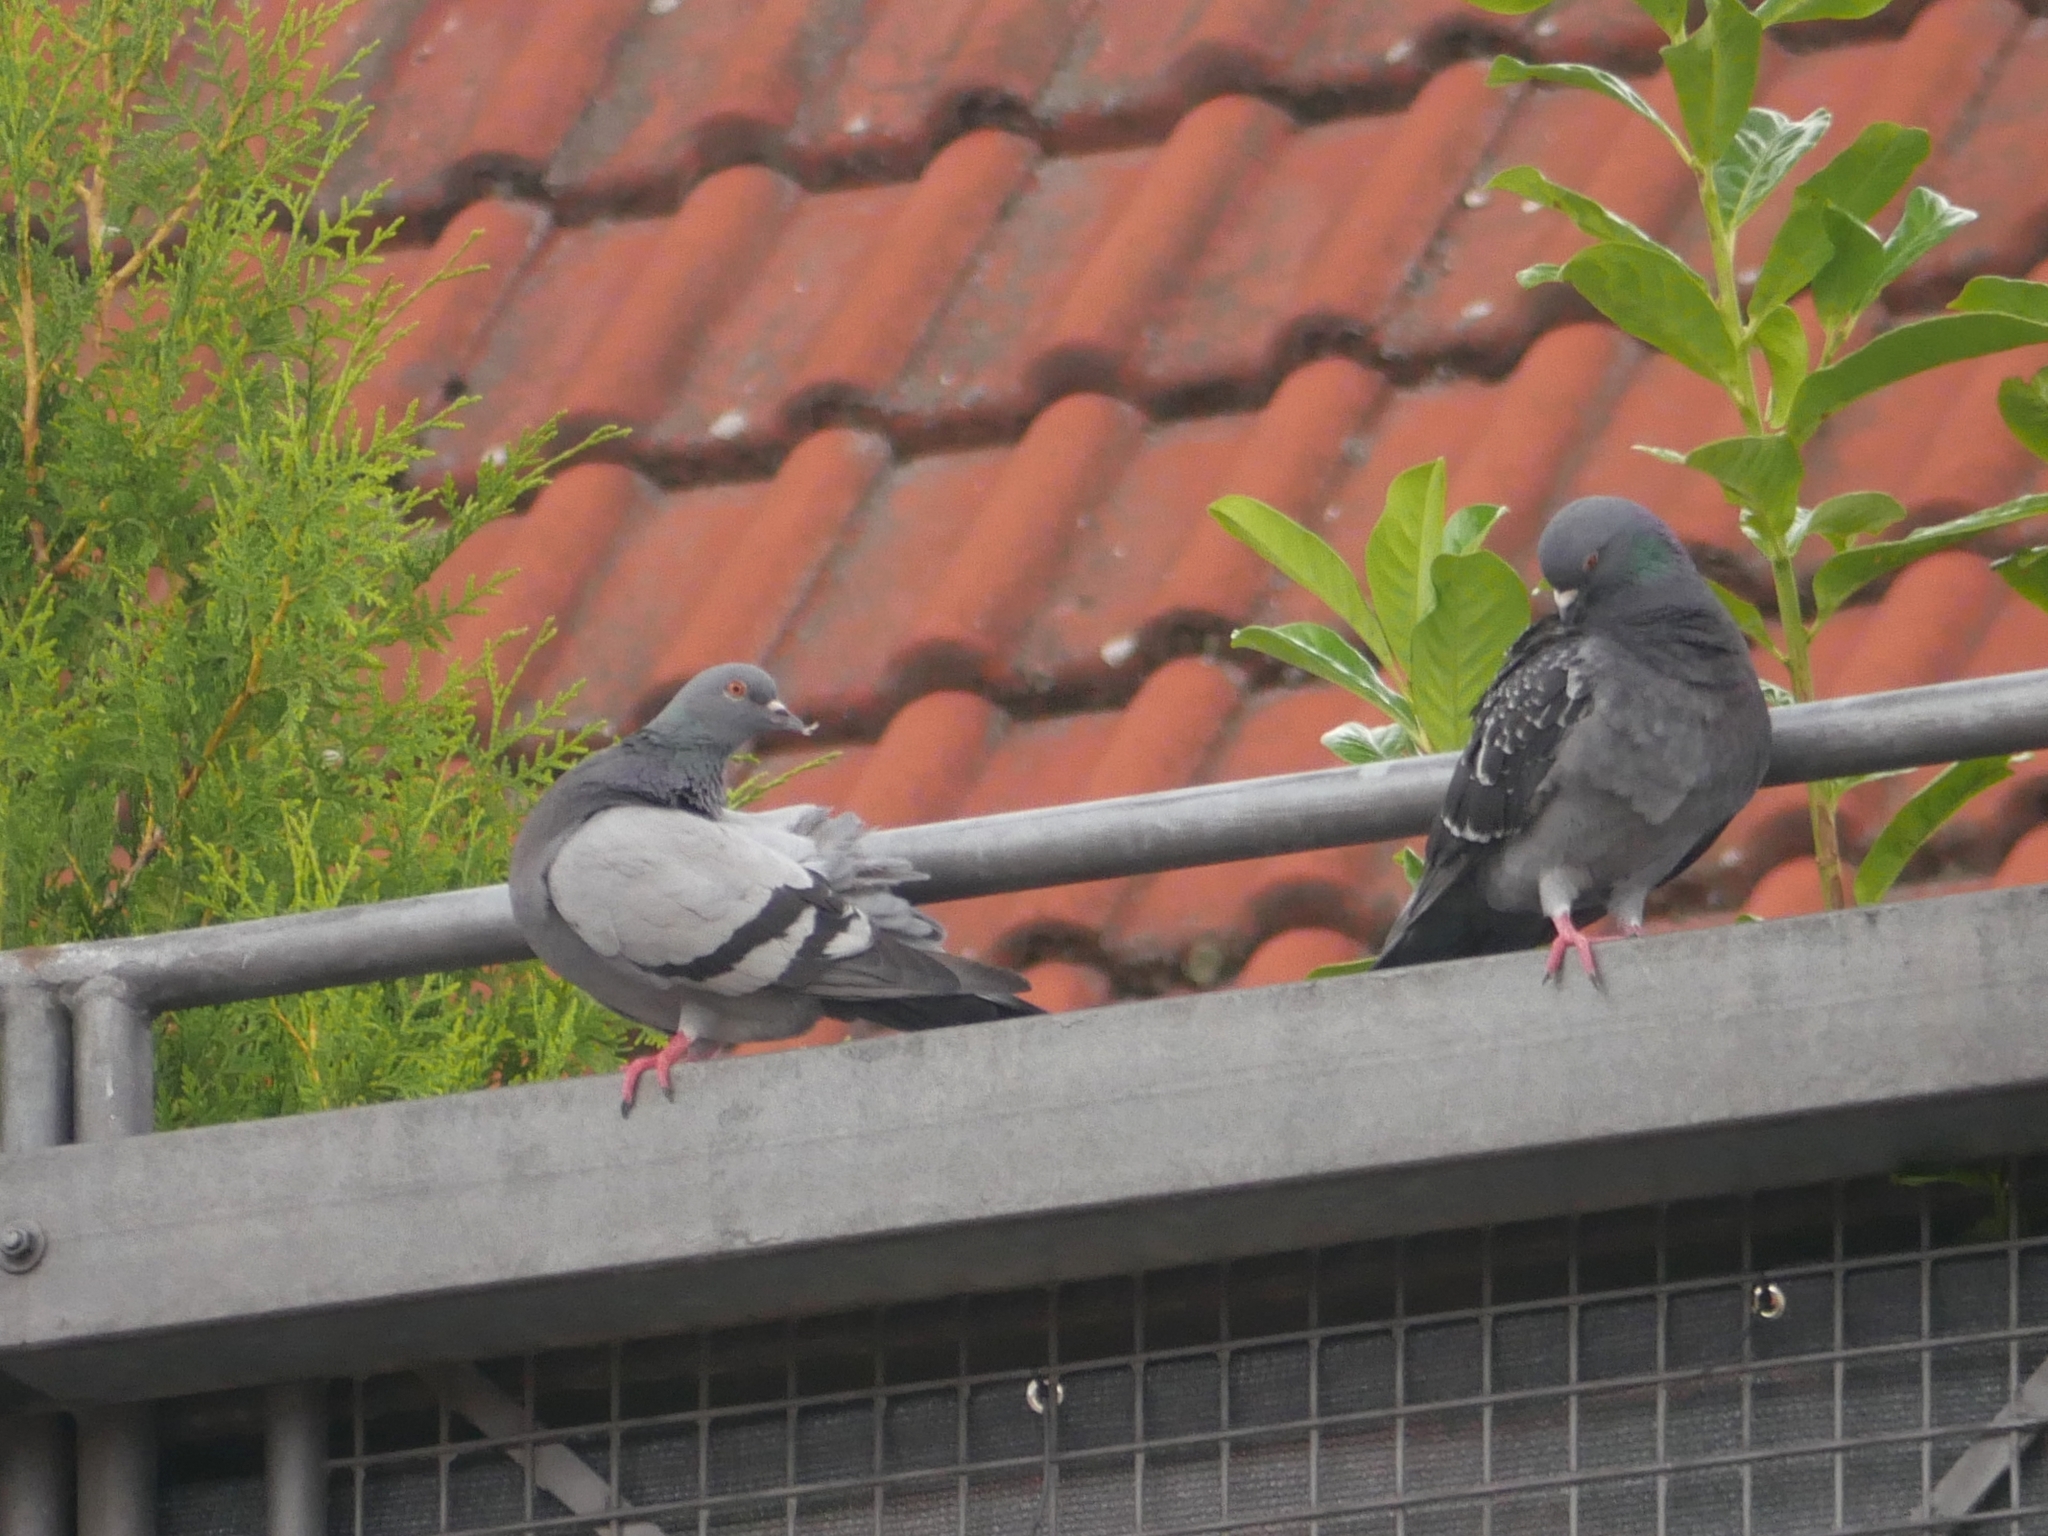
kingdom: Animalia
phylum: Chordata
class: Aves
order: Columbiformes
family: Columbidae
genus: Columba
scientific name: Columba livia
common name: Rock pigeon
